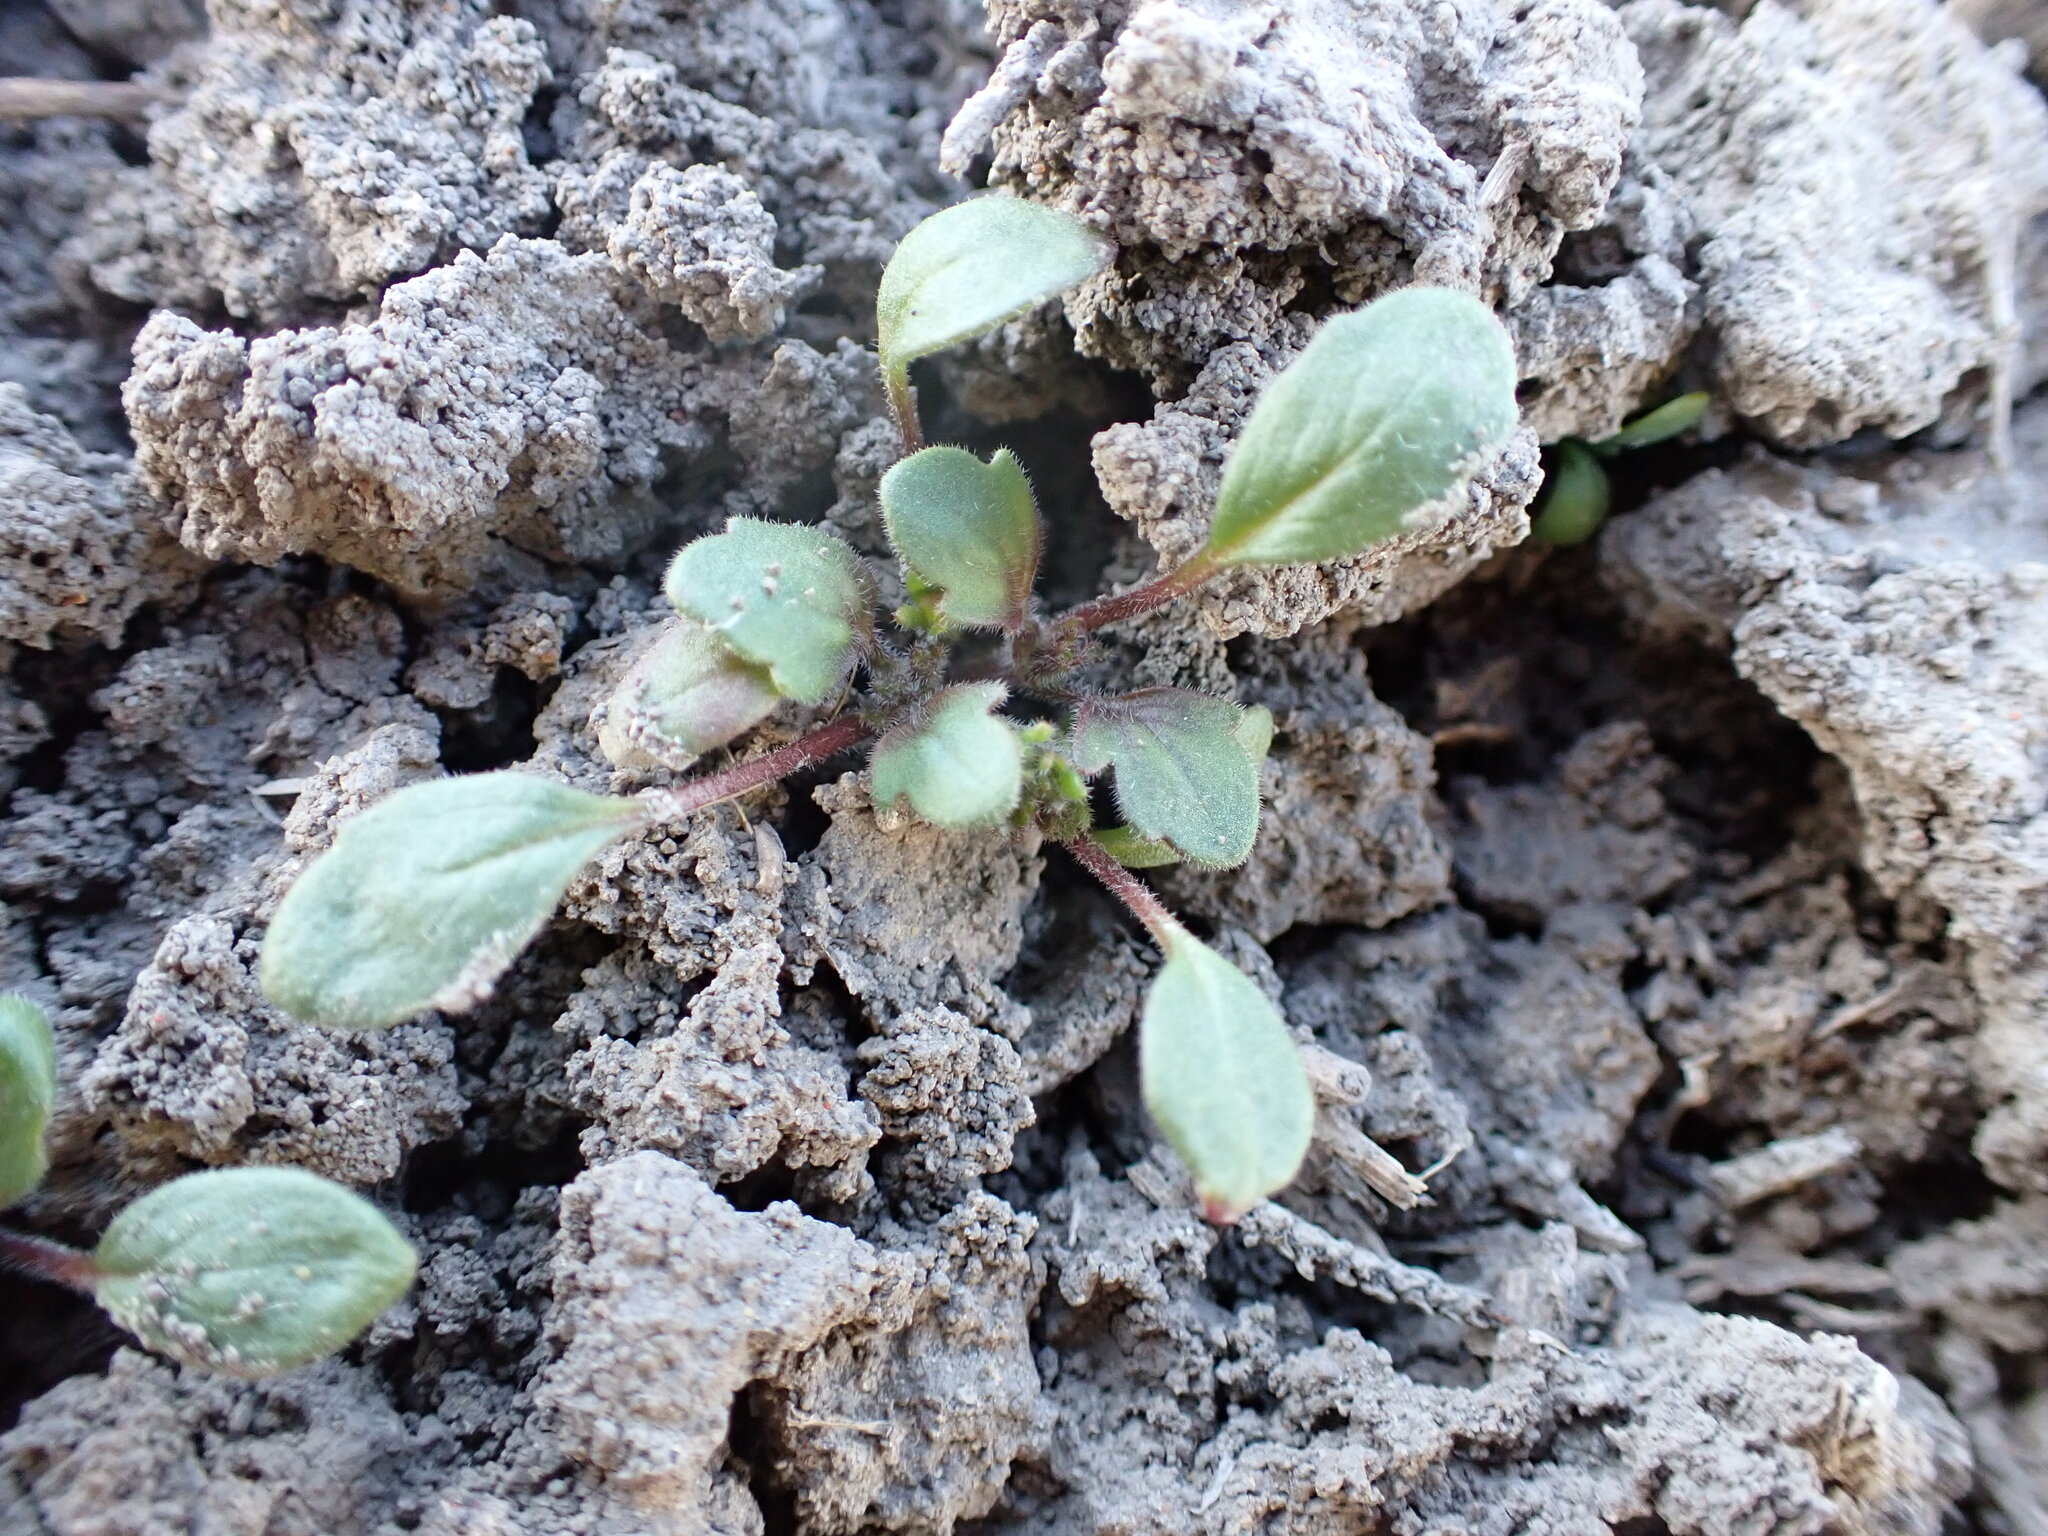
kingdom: Plantae
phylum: Tracheophyta
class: Magnoliopsida
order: Boraginales
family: Hydrophyllaceae
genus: Phacelia
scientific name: Phacelia scopulina
